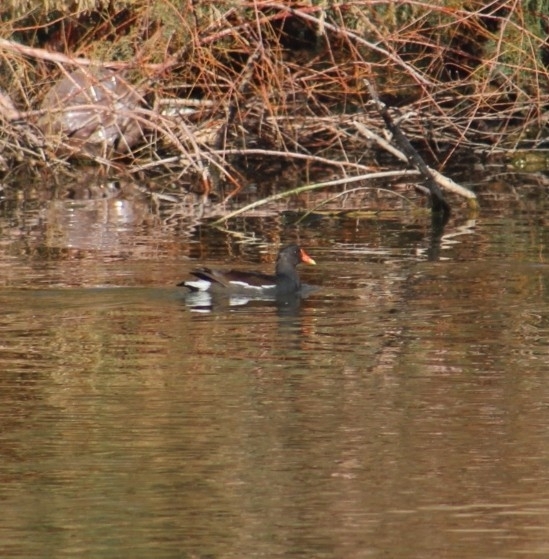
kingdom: Animalia
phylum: Chordata
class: Aves
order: Gruiformes
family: Rallidae
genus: Gallinula
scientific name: Gallinula chloropus
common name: Common moorhen
